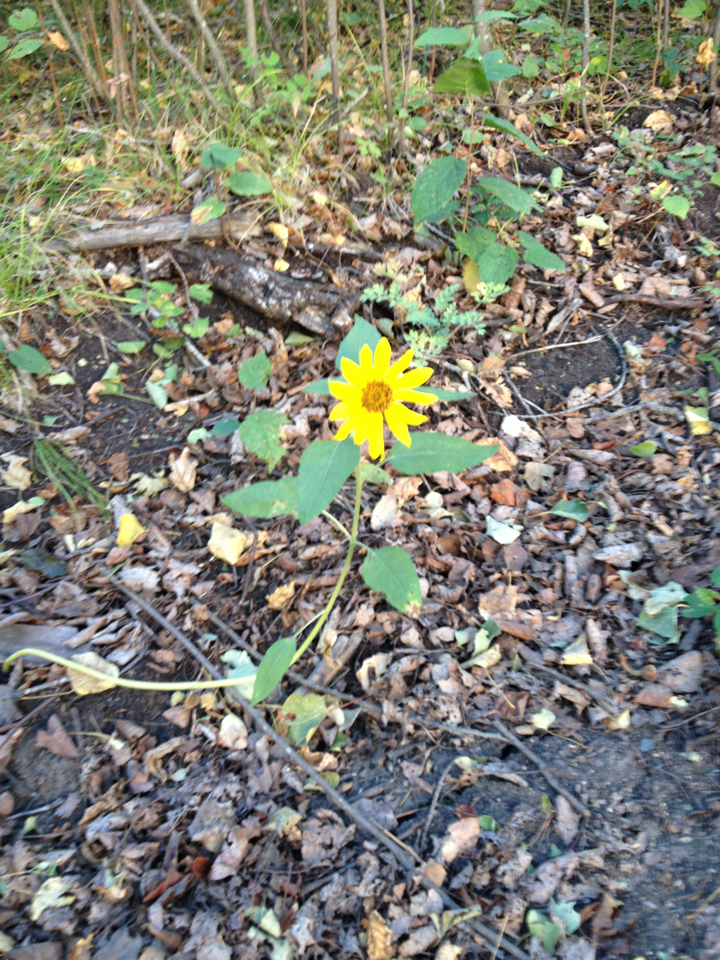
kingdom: Plantae
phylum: Tracheophyta
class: Magnoliopsida
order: Asterales
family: Asteraceae
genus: Helianthus
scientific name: Helianthus tuberosus
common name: Jerusalem artichoke
